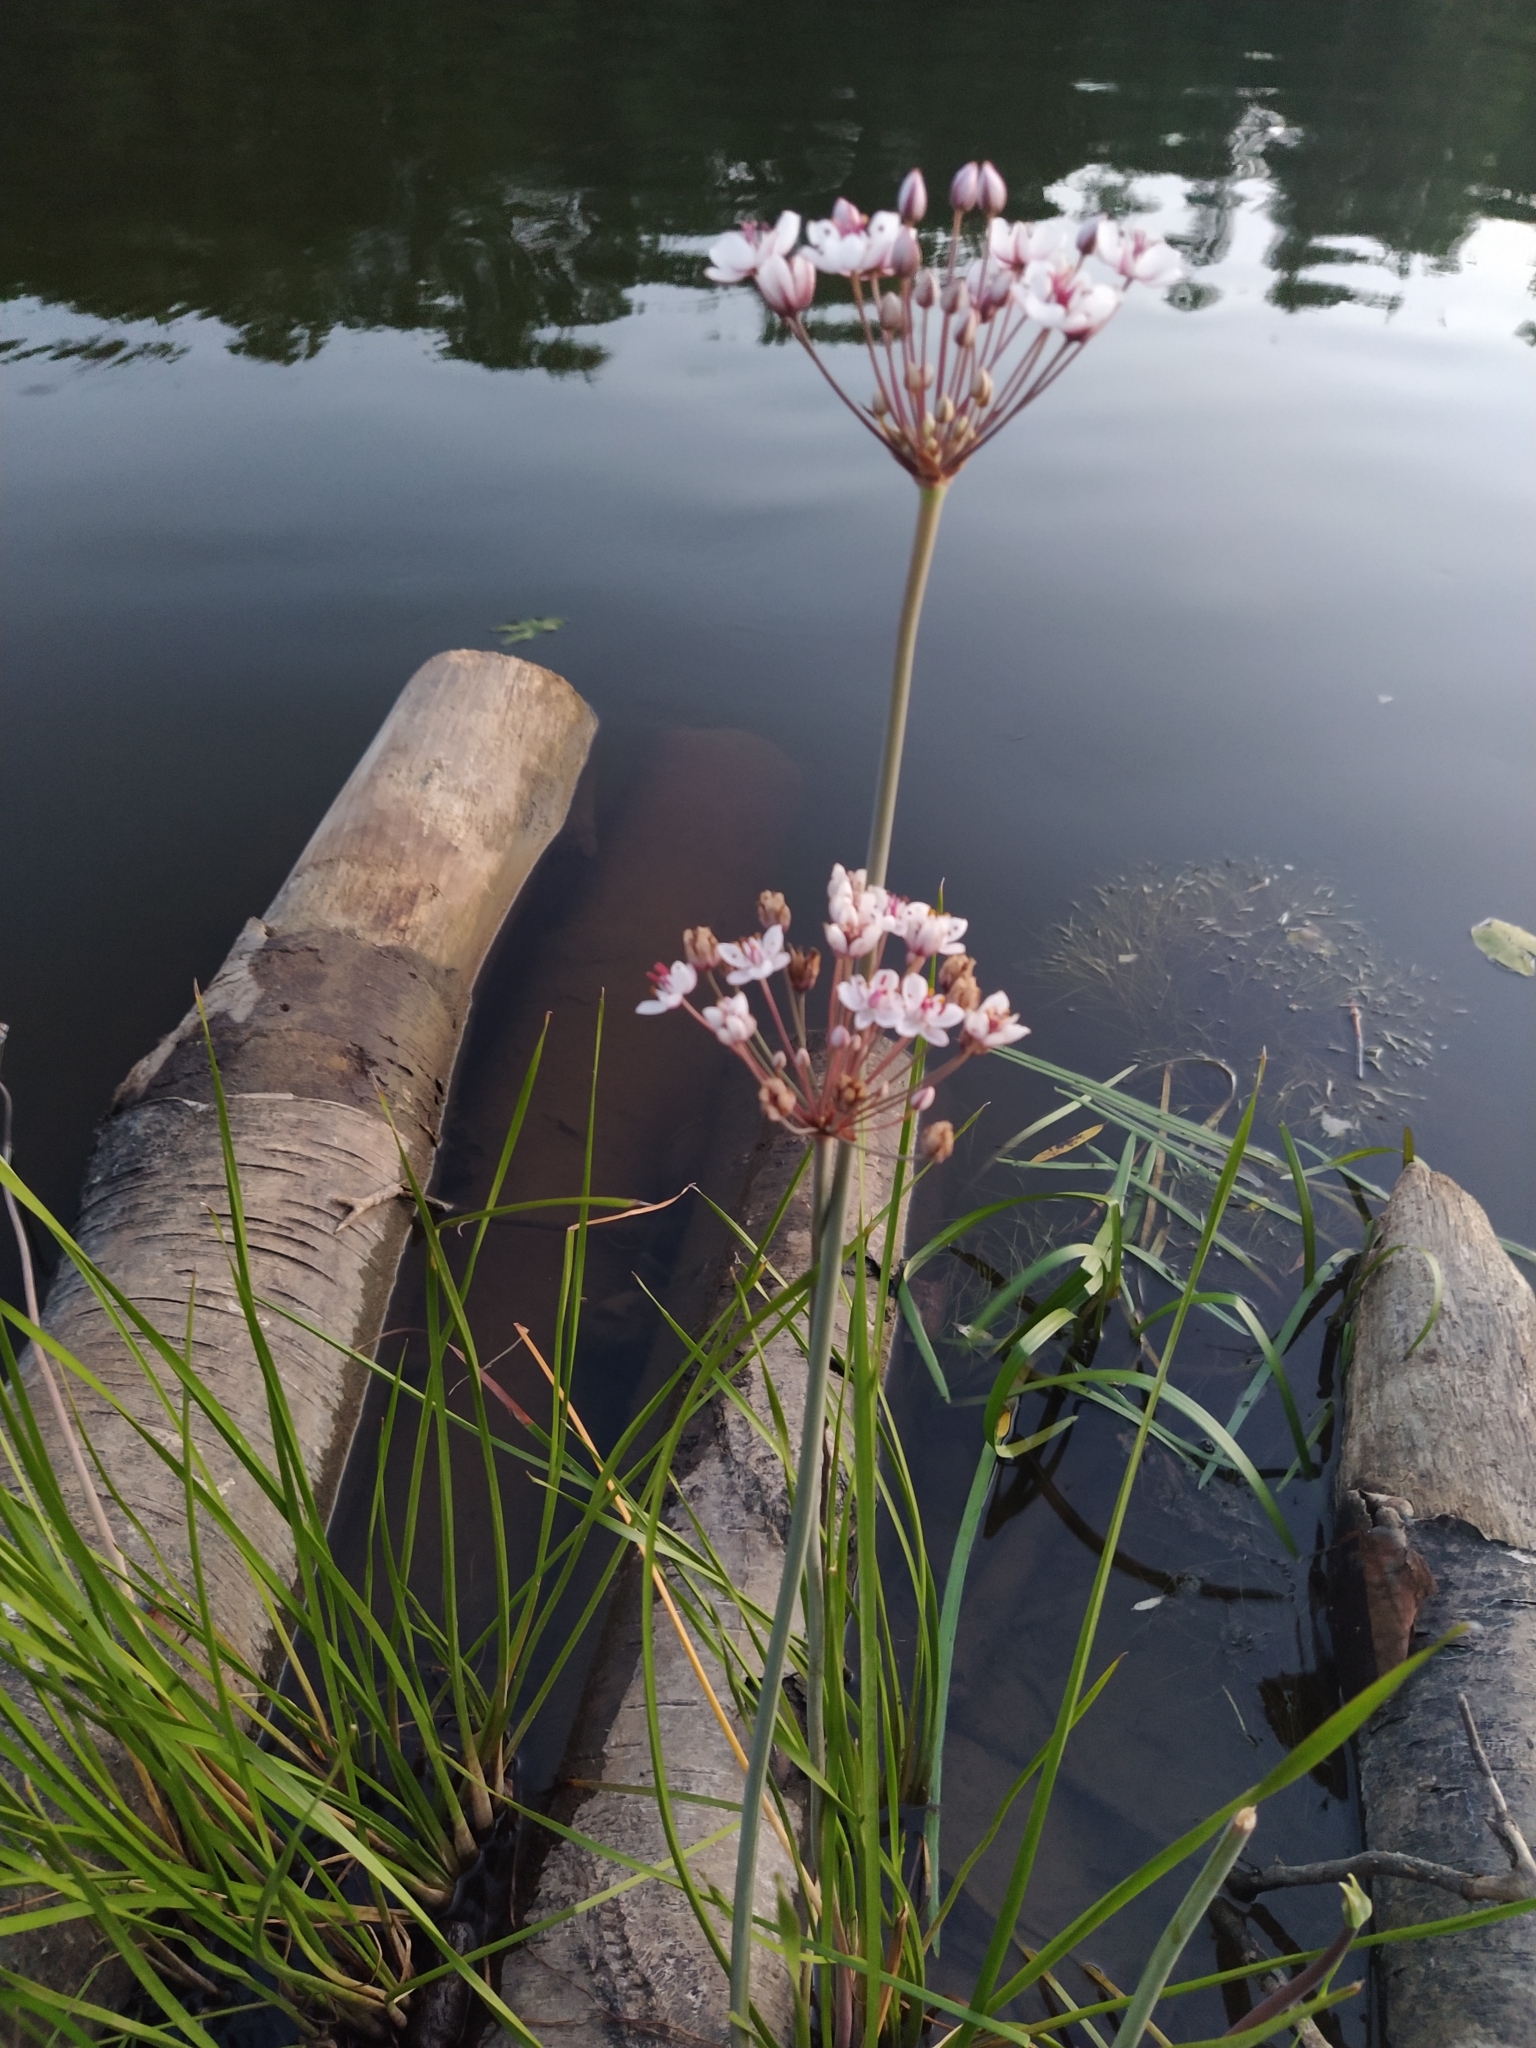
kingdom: Plantae
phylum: Tracheophyta
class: Liliopsida
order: Alismatales
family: Butomaceae
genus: Butomus
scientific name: Butomus umbellatus
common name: Flowering-rush
